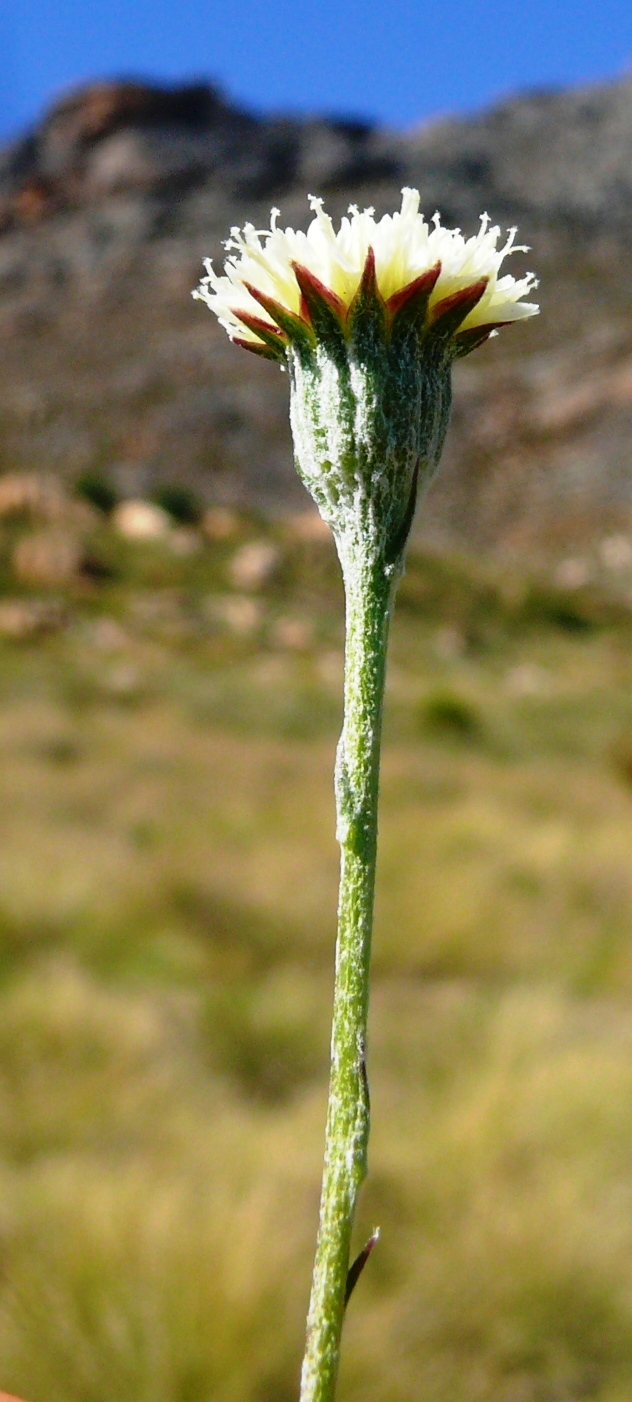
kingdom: Plantae
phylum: Tracheophyta
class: Magnoliopsida
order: Asterales
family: Asteraceae
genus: Bolandia
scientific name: Bolandia pinnatifida
